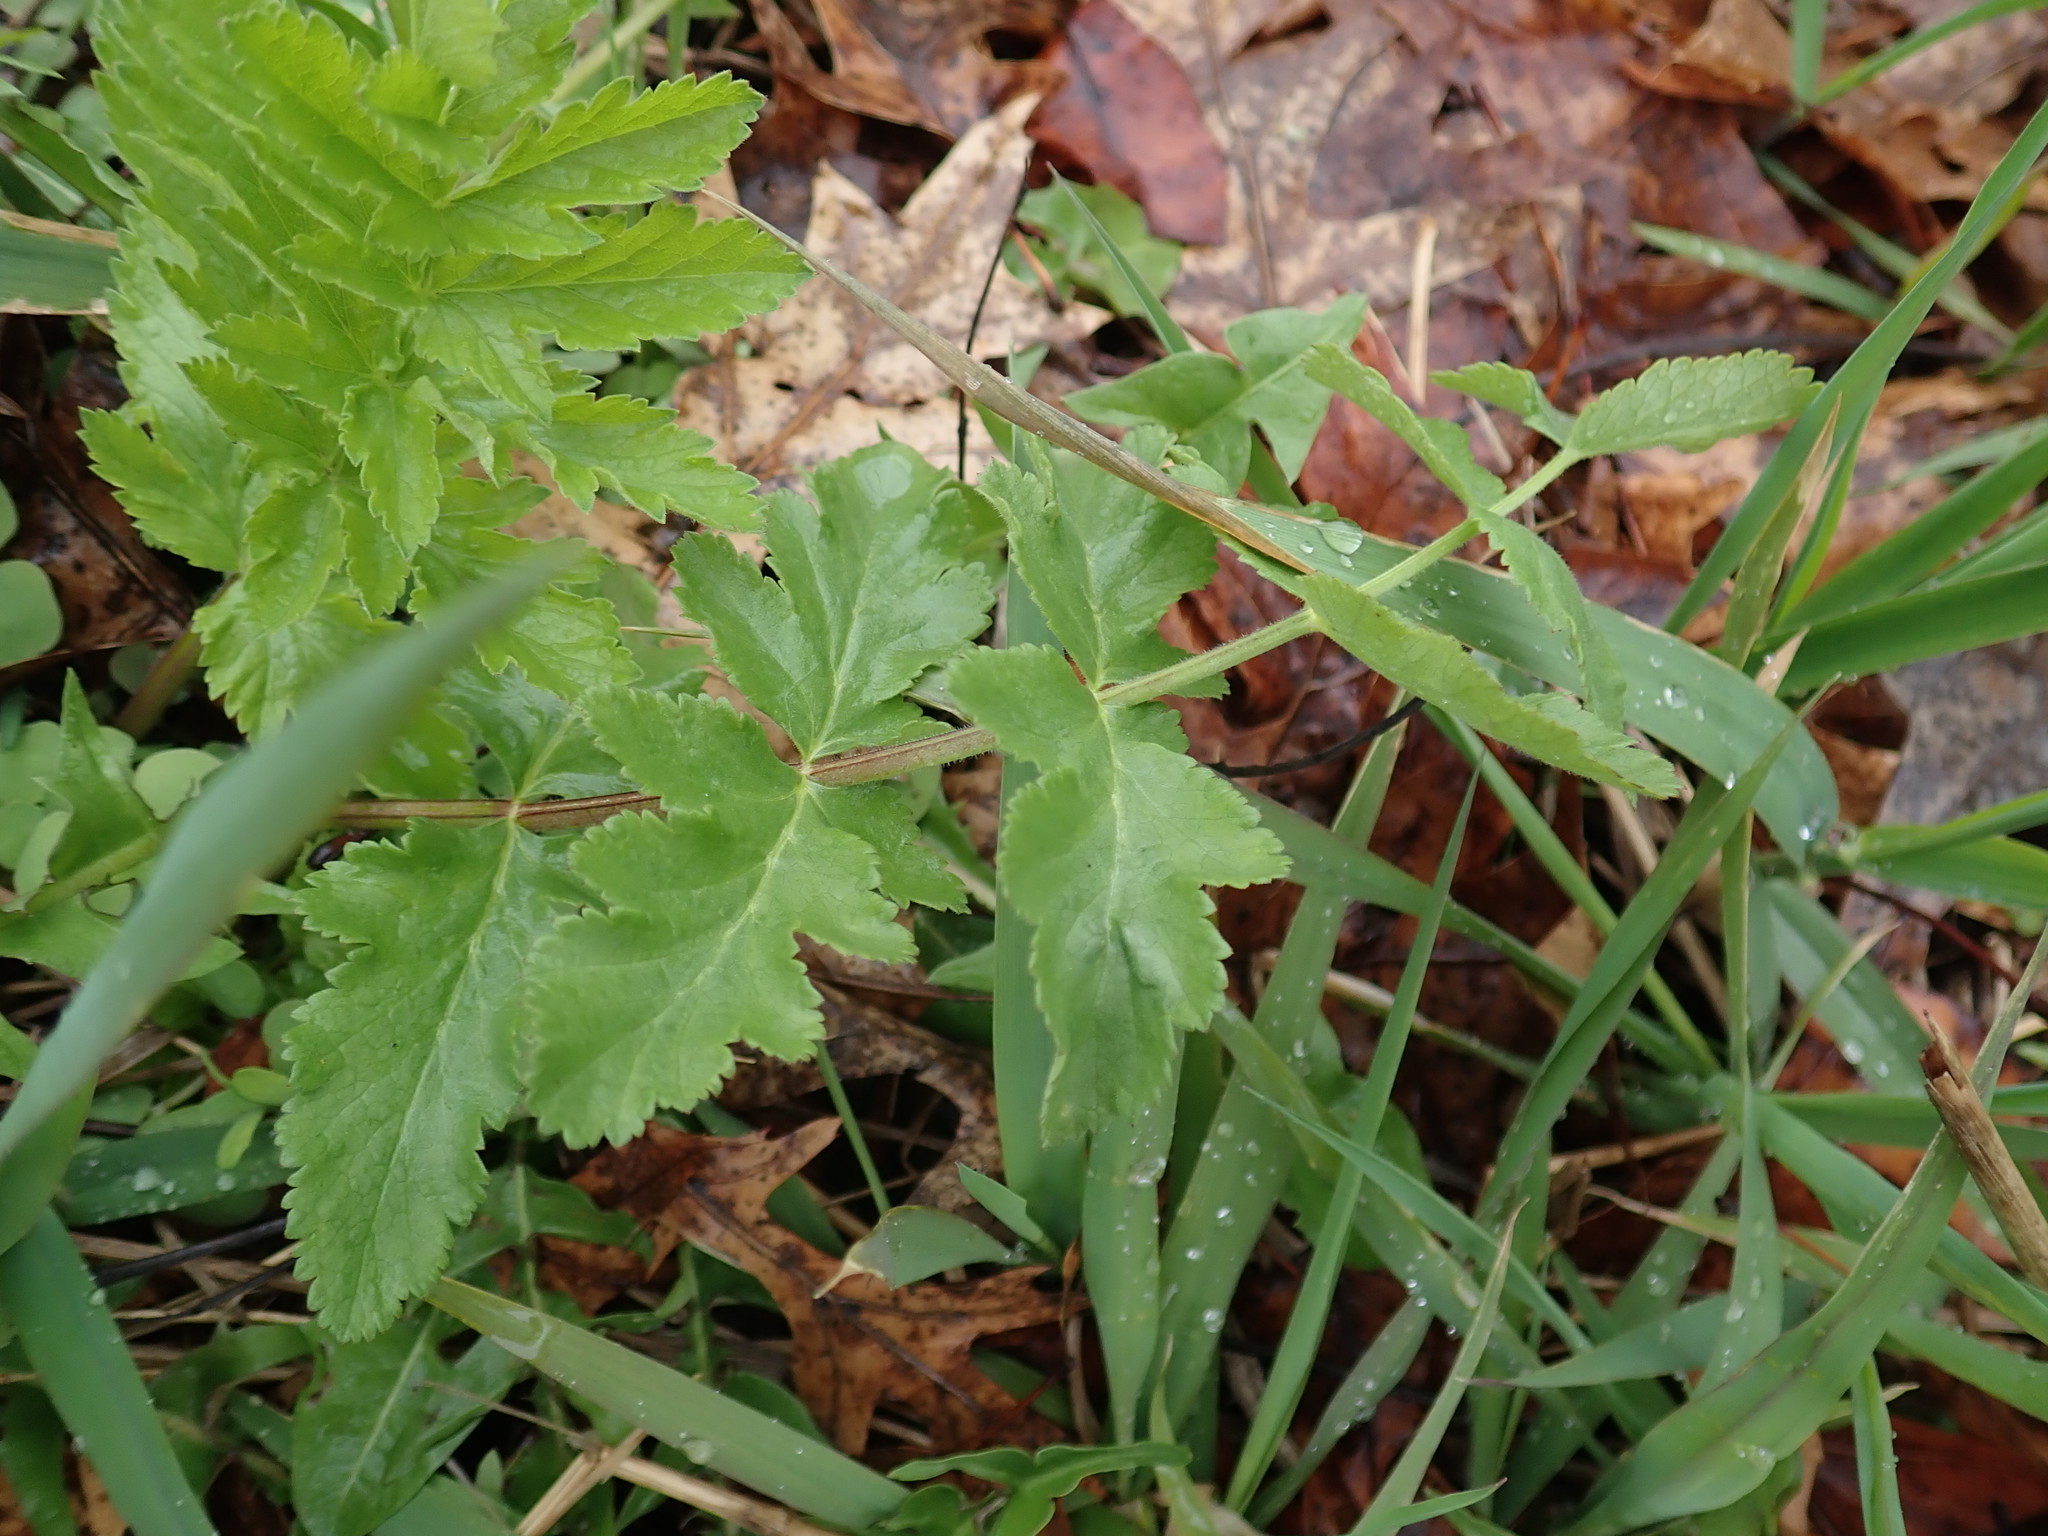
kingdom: Plantae
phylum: Tracheophyta
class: Magnoliopsida
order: Apiales
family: Apiaceae
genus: Pastinaca
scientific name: Pastinaca sativa
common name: Wild parsnip
